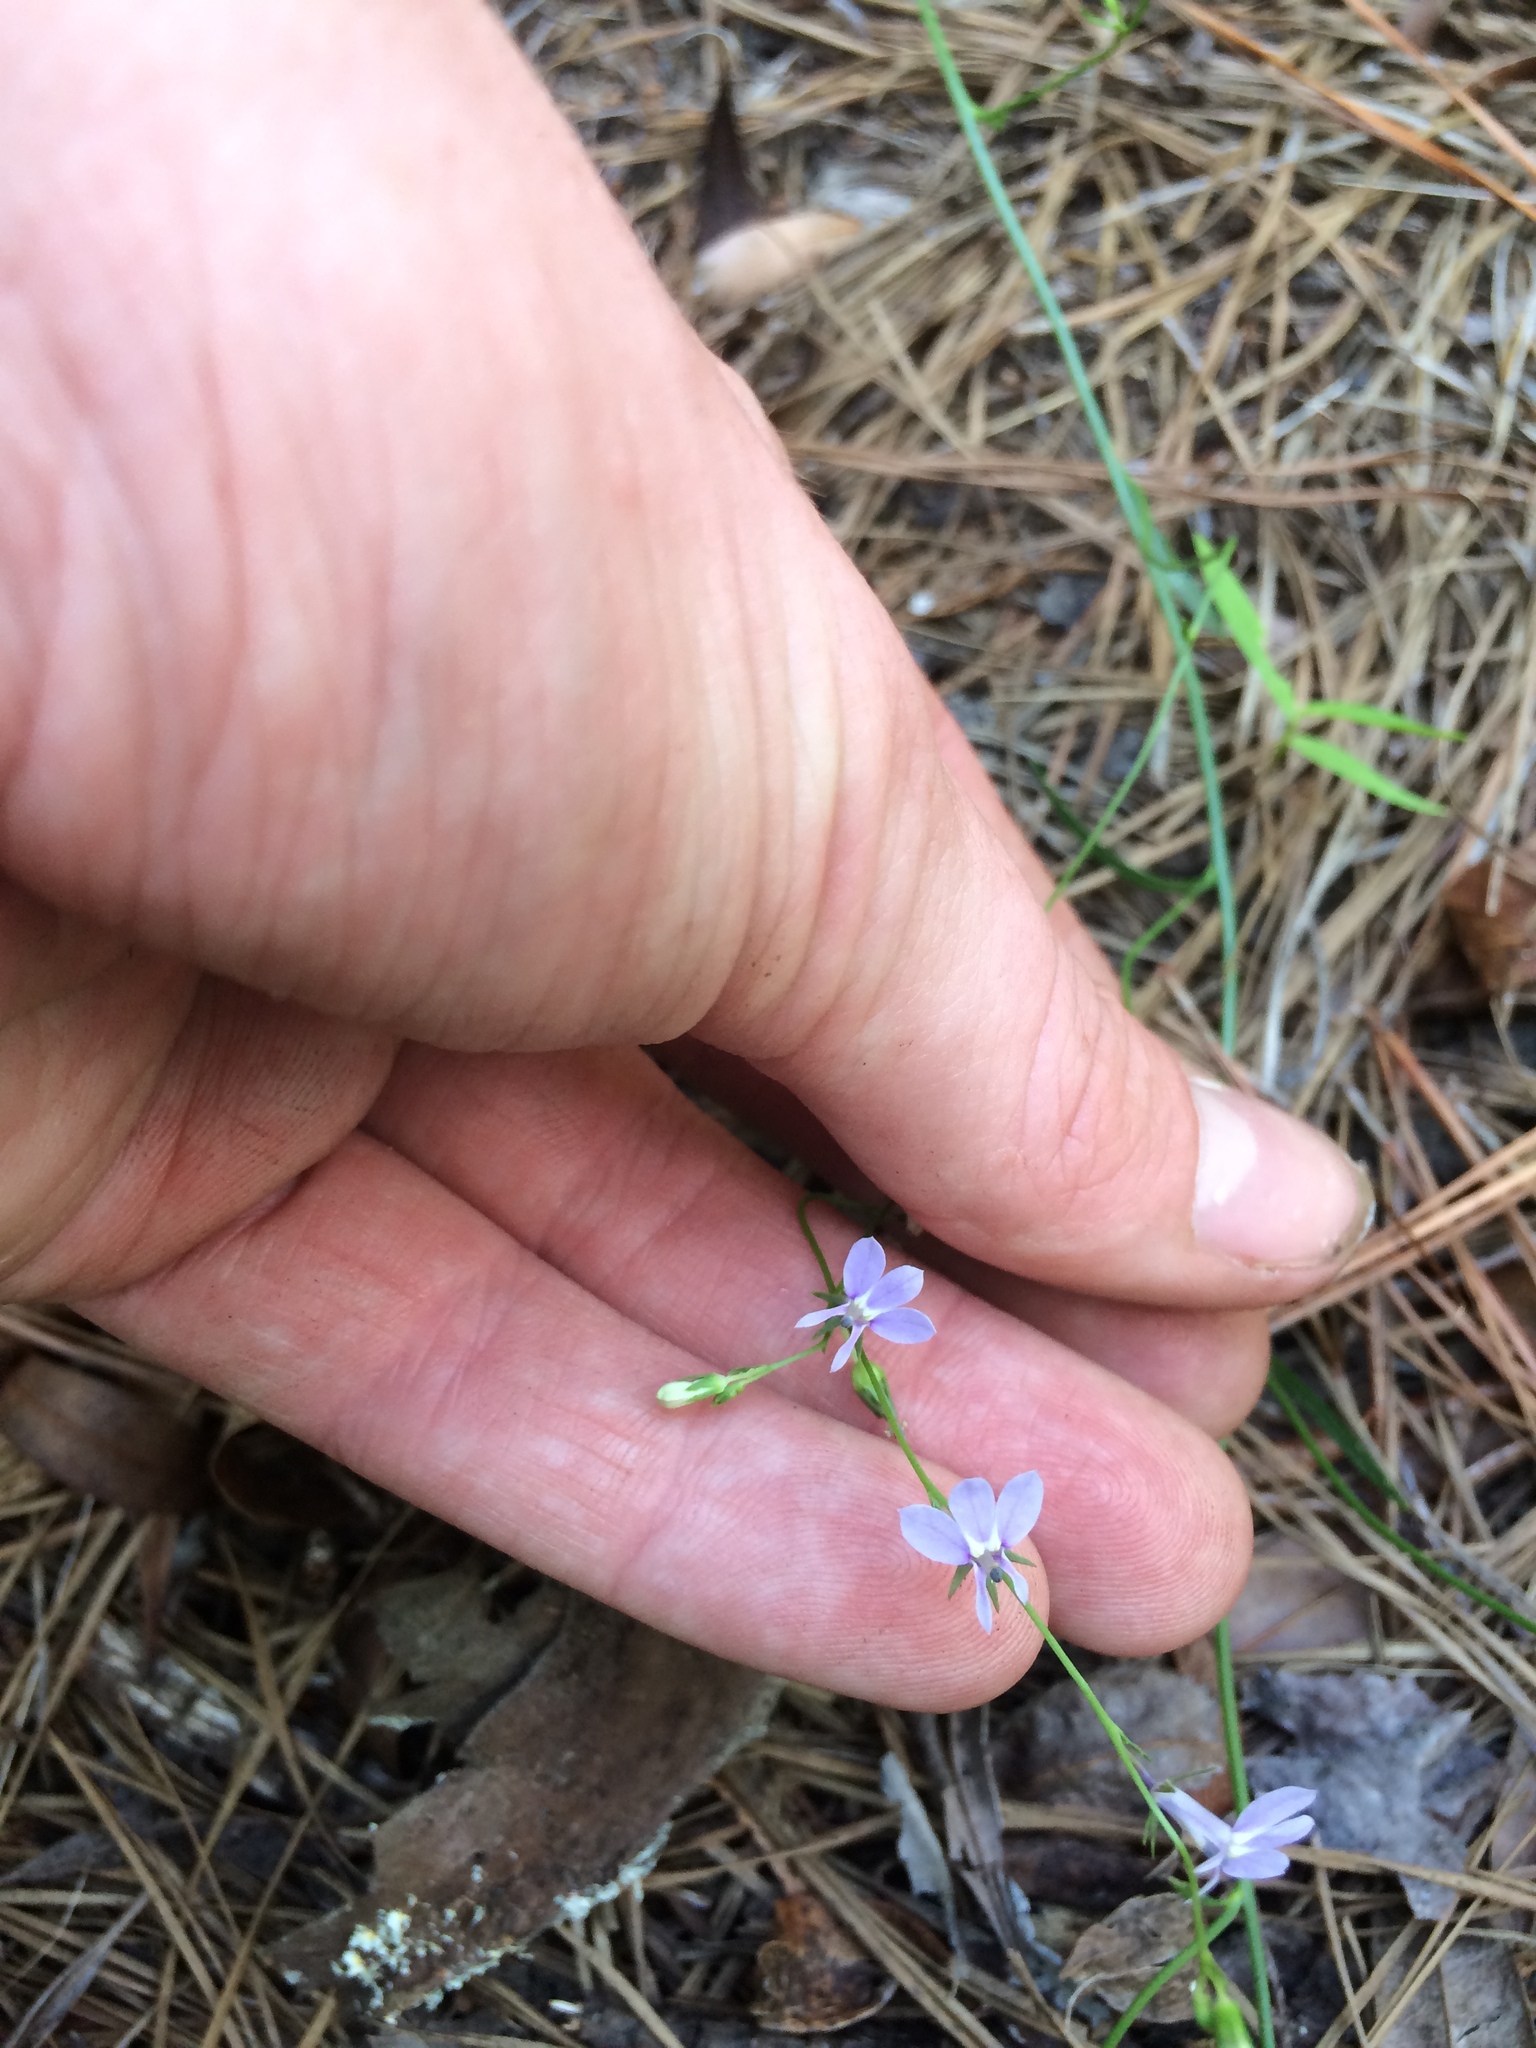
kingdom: Plantae
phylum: Tracheophyta
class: Magnoliopsida
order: Asterales
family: Campanulaceae
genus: Lobelia
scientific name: Lobelia nuttallii
